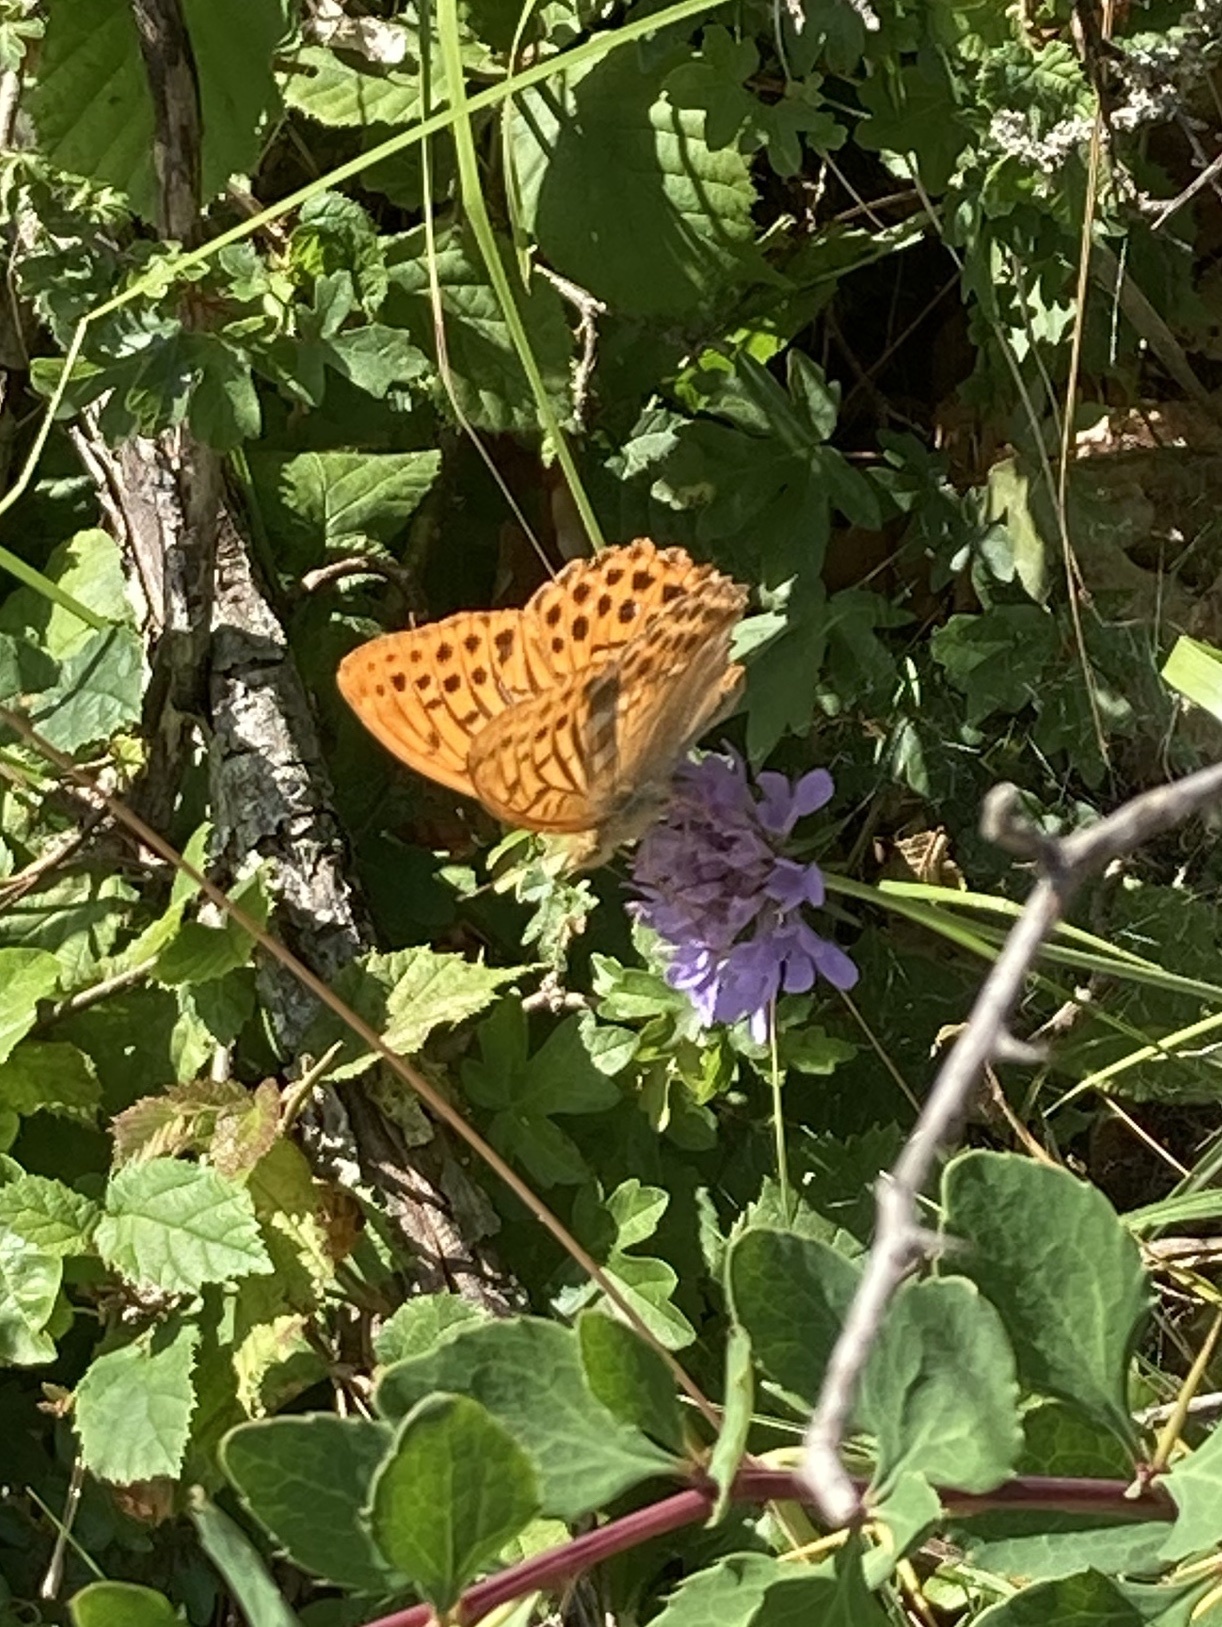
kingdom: Animalia
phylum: Arthropoda
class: Insecta
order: Lepidoptera
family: Nymphalidae
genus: Argynnis
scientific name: Argynnis paphia
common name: Silver-washed fritillary
